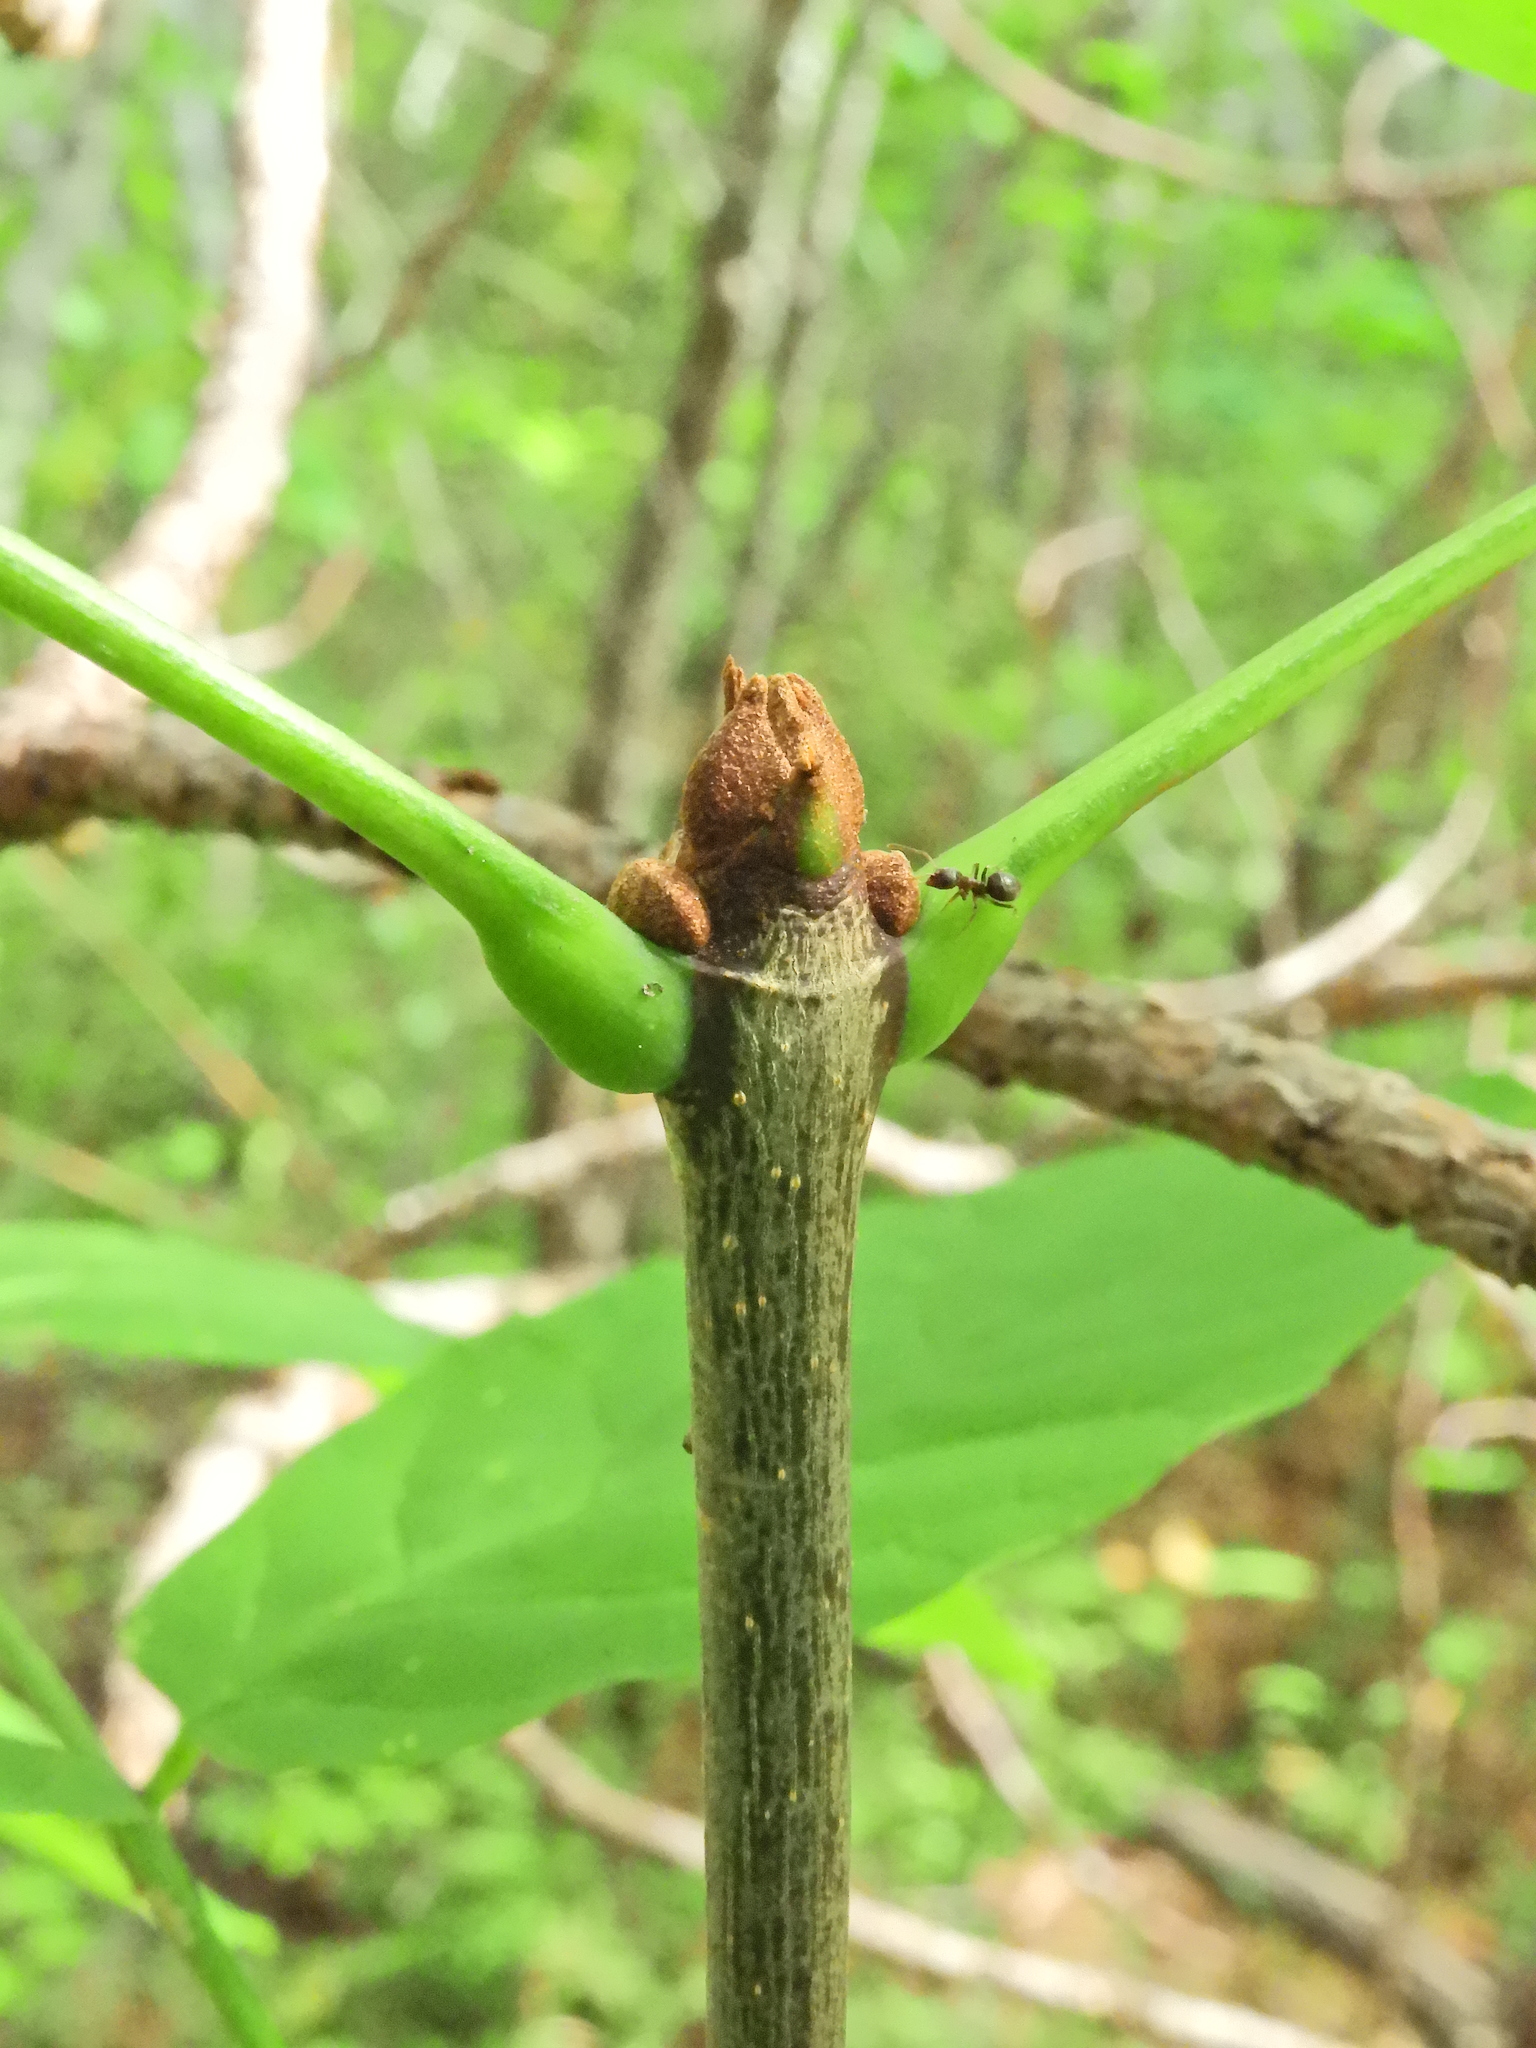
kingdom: Plantae
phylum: Tracheophyta
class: Magnoliopsida
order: Lamiales
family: Oleaceae
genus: Fraxinus
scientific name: Fraxinus americana
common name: White ash
